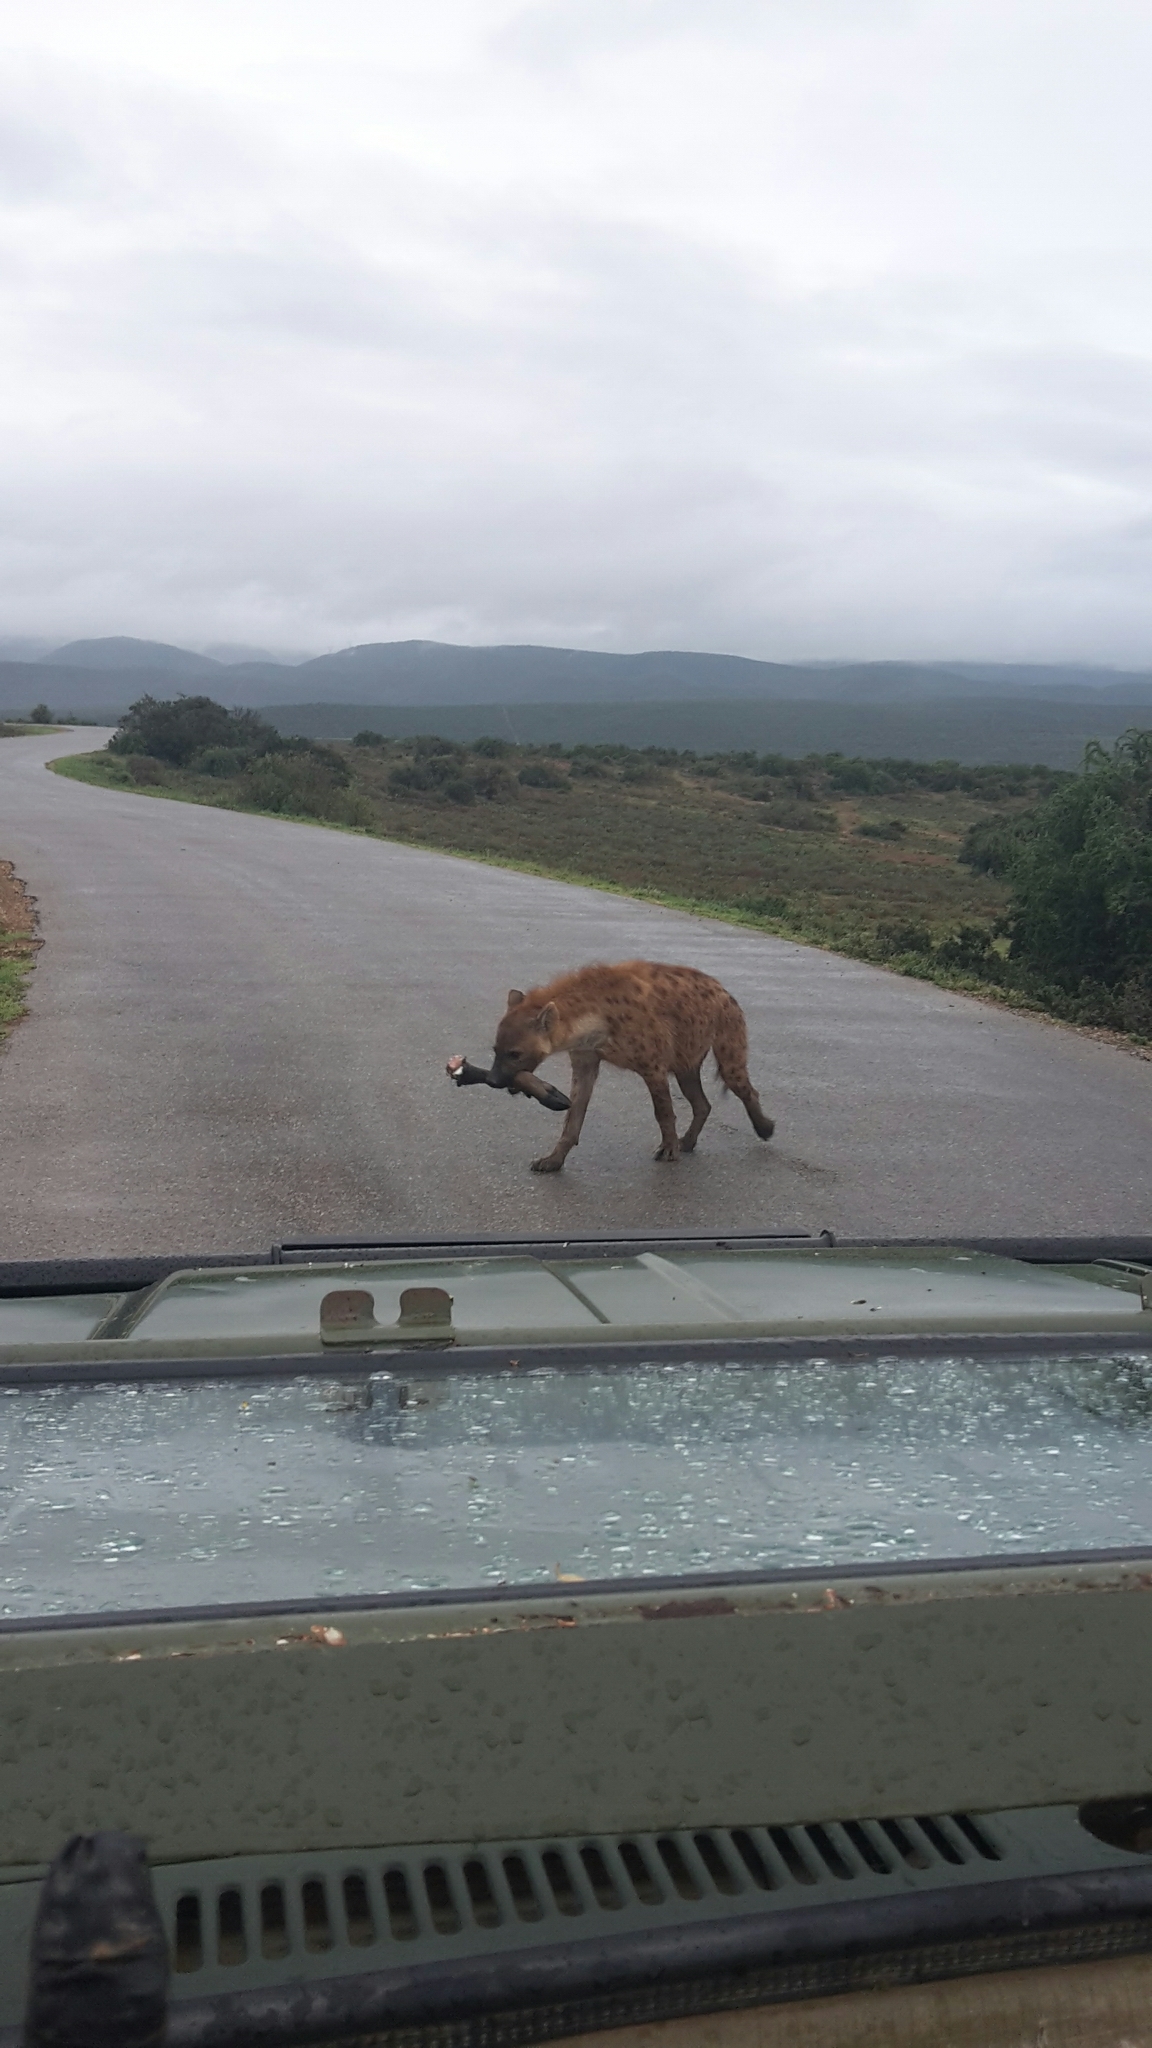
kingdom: Animalia
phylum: Chordata
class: Mammalia
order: Carnivora
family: Hyaenidae
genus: Crocuta
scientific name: Crocuta crocuta
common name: Spotted hyaena
